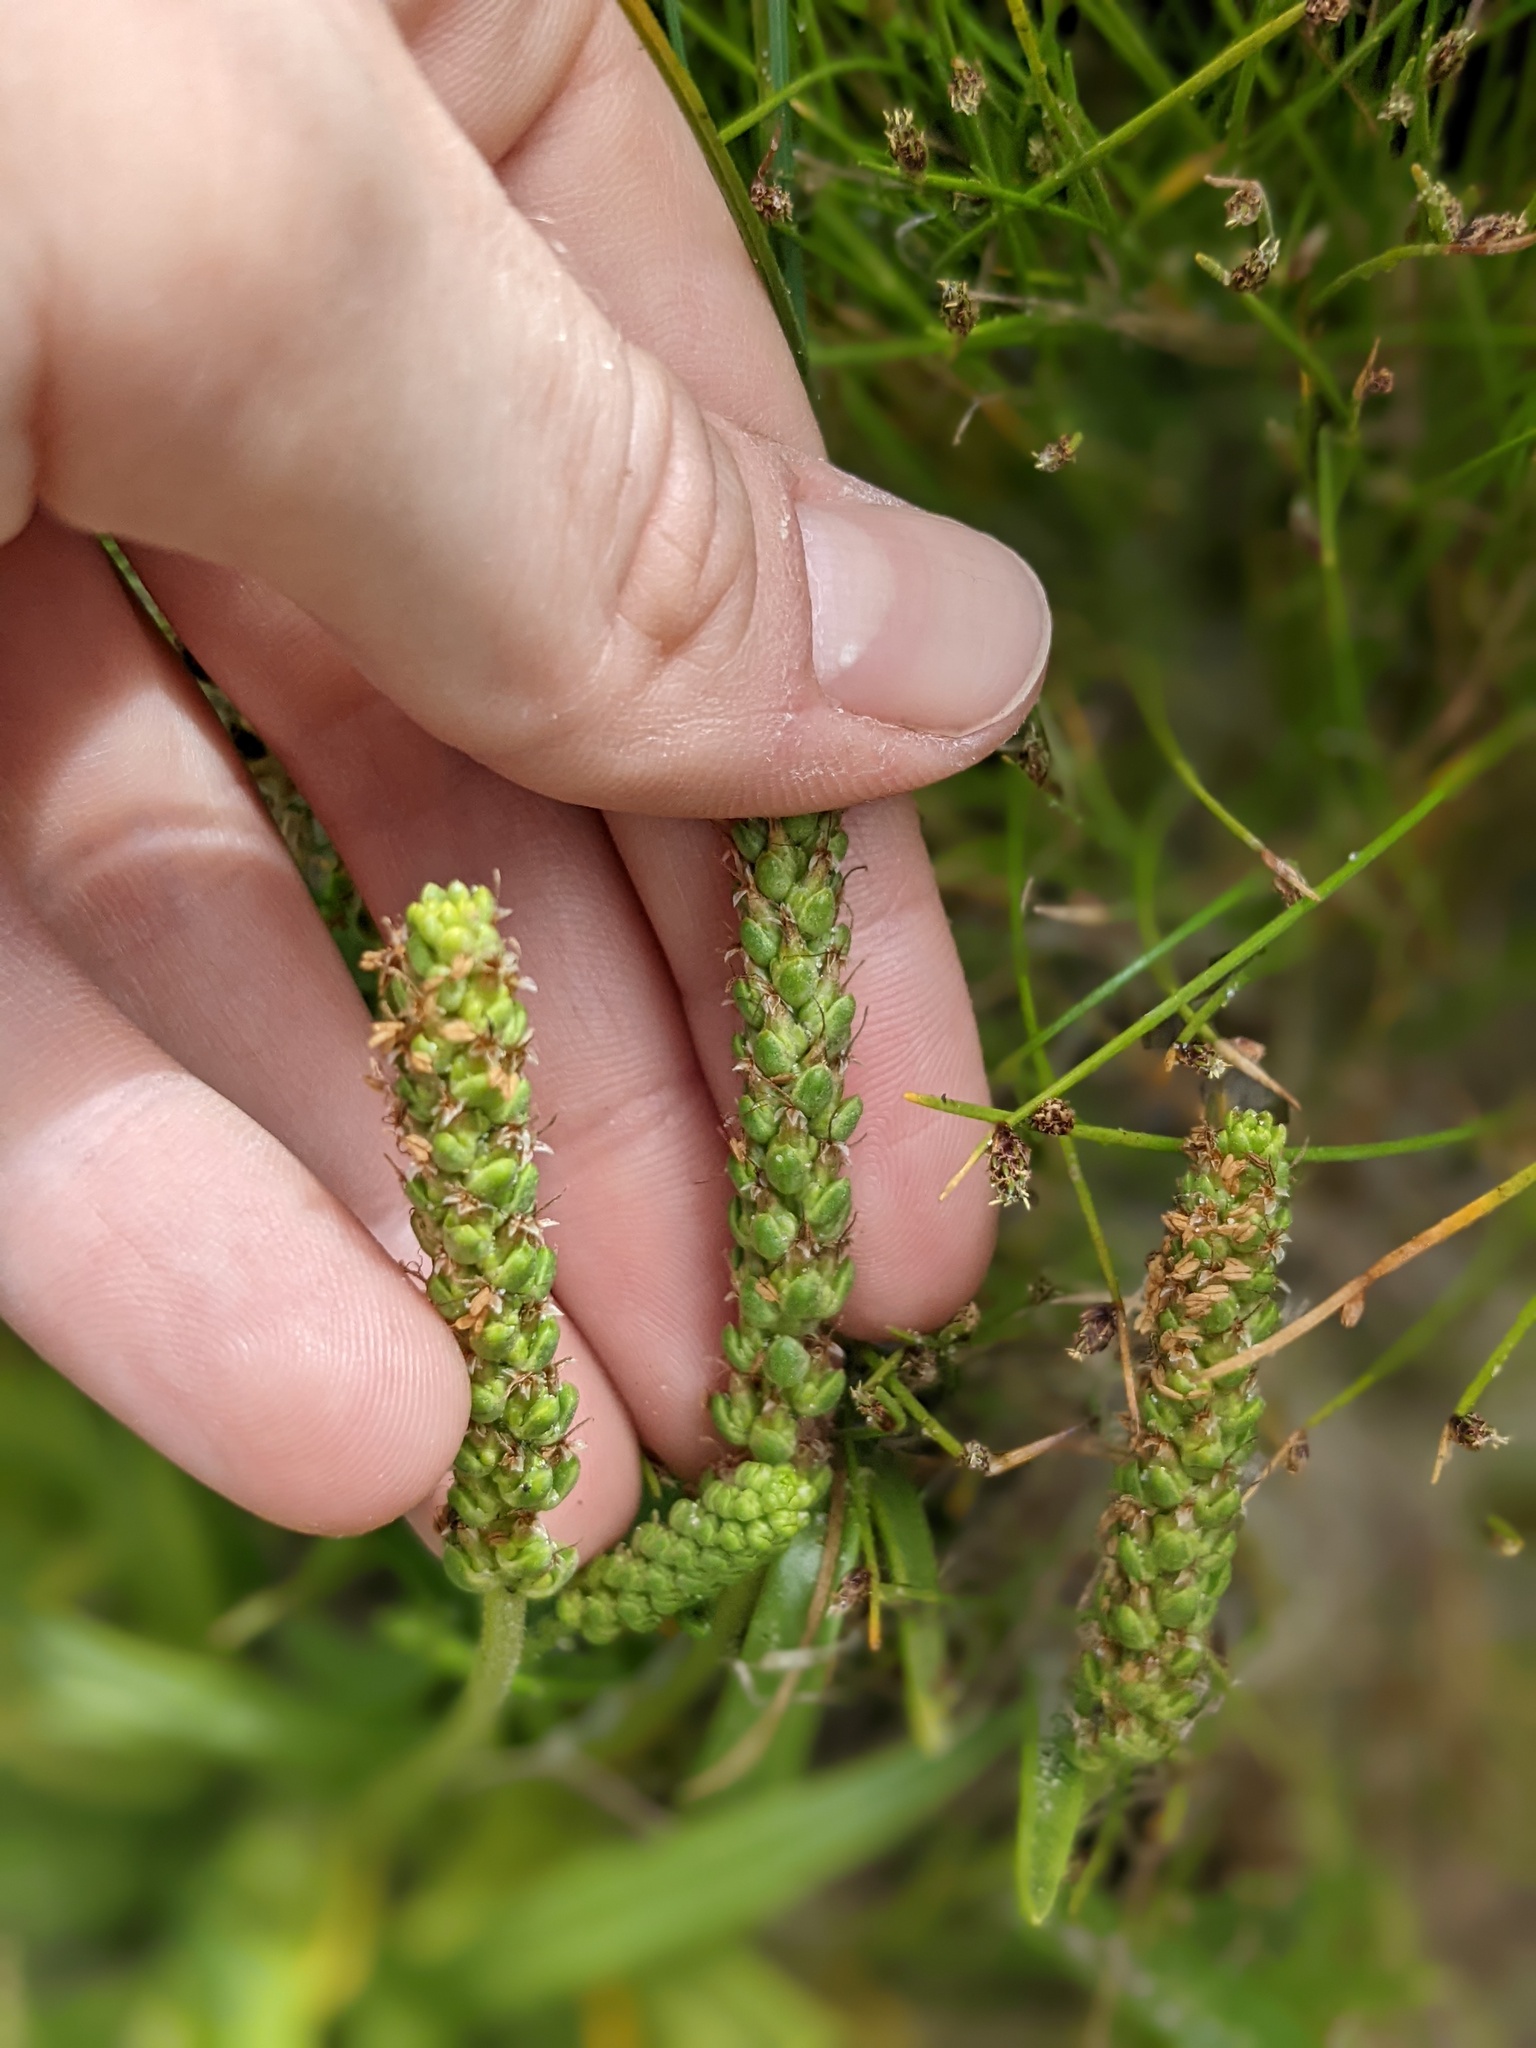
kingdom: Plantae
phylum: Tracheophyta
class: Magnoliopsida
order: Lamiales
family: Plantaginaceae
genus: Plantago
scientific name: Plantago maritima
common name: Sea plantain
